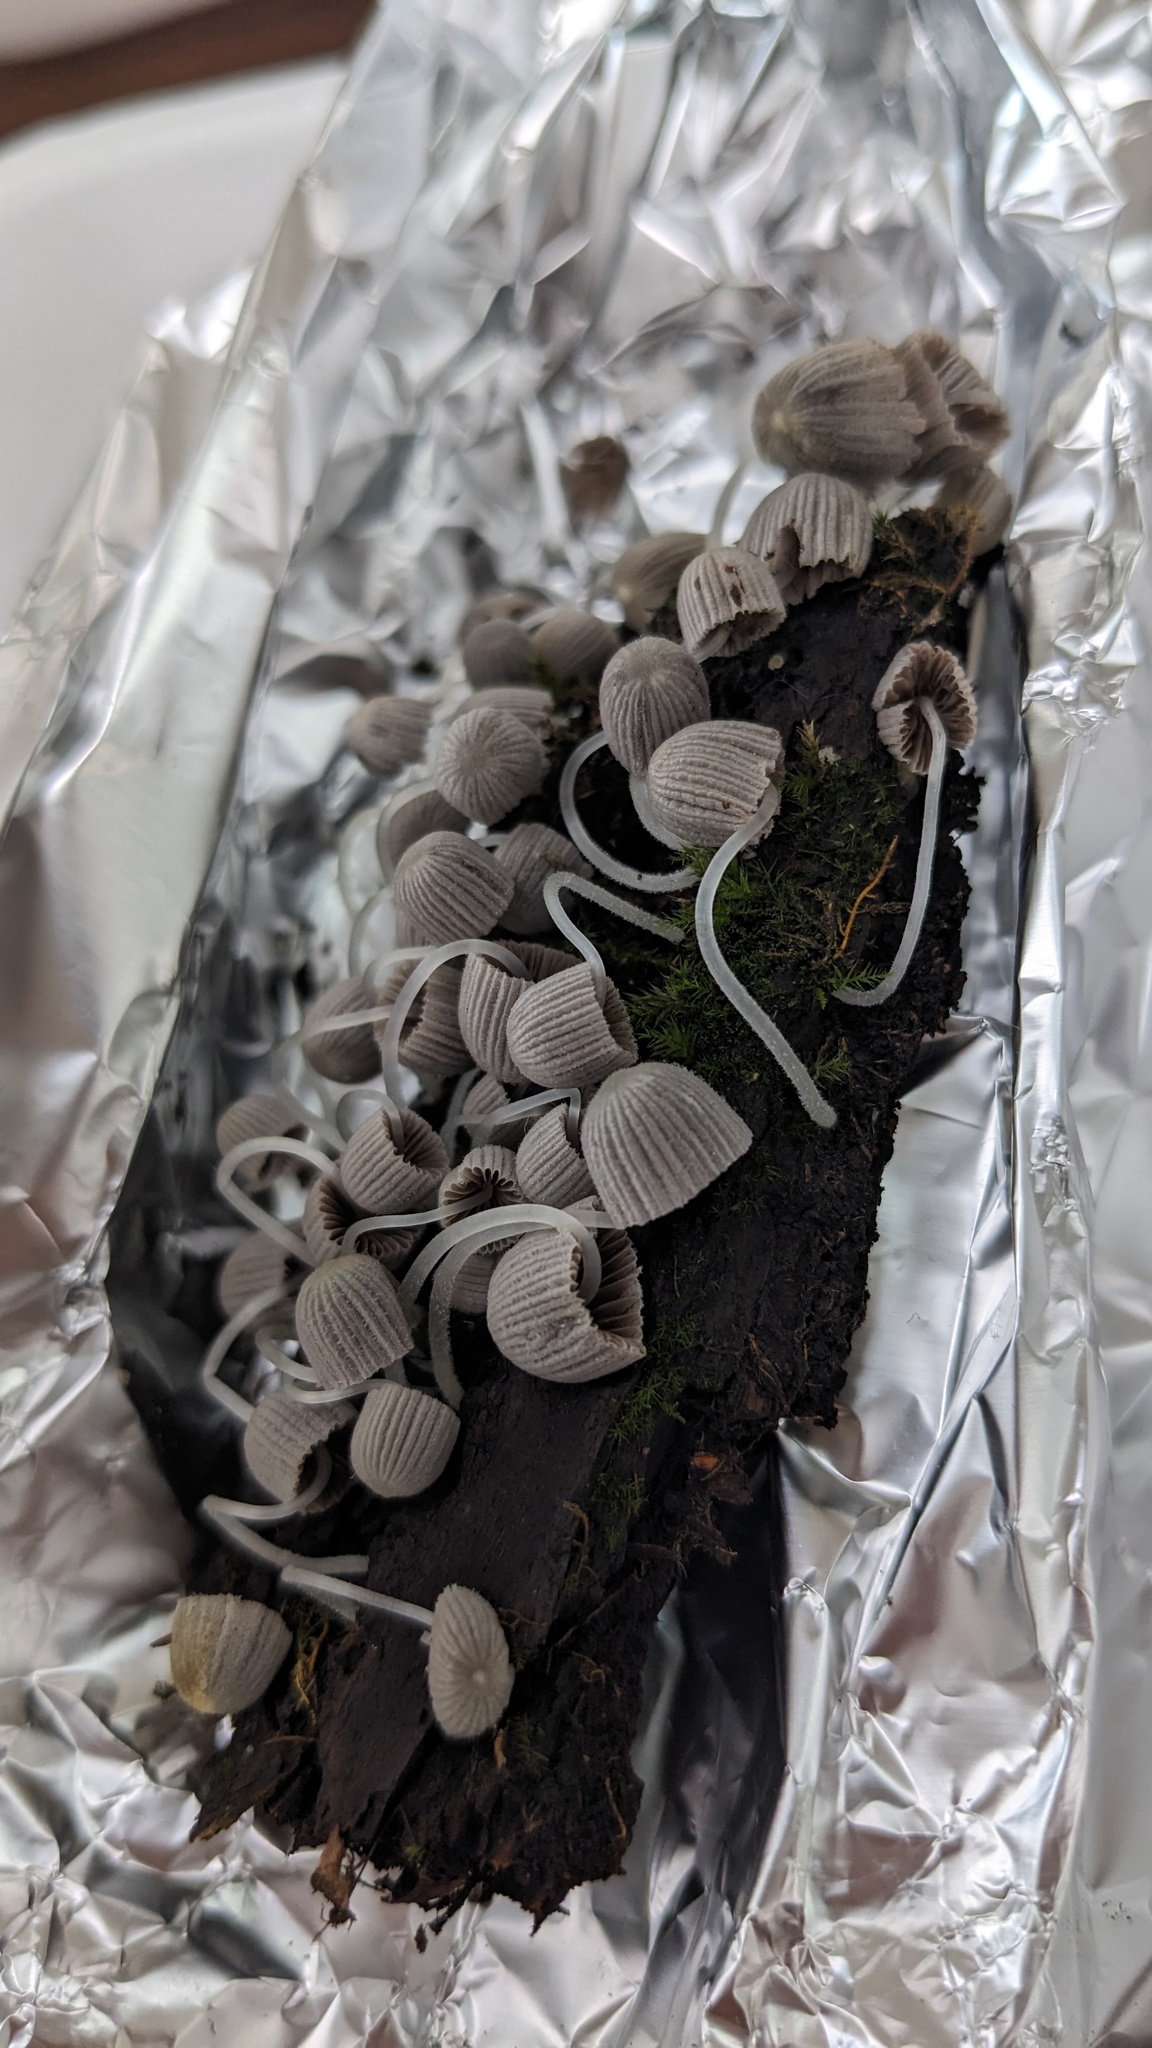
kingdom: Fungi
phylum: Basidiomycota
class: Agaricomycetes
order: Agaricales
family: Psathyrellaceae
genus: Coprinellus
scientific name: Coprinellus disseminatus
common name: Fairies' bonnets
